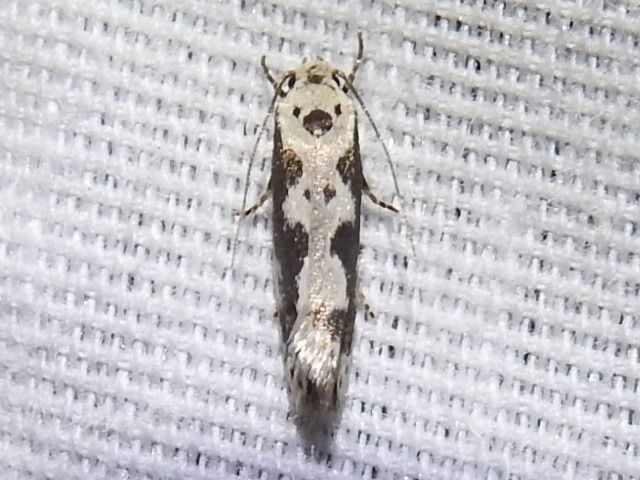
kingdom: Animalia
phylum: Arthropoda
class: Insecta
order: Lepidoptera
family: Ethmiidae
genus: Ethmia
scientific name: Ethmia hodgesella
